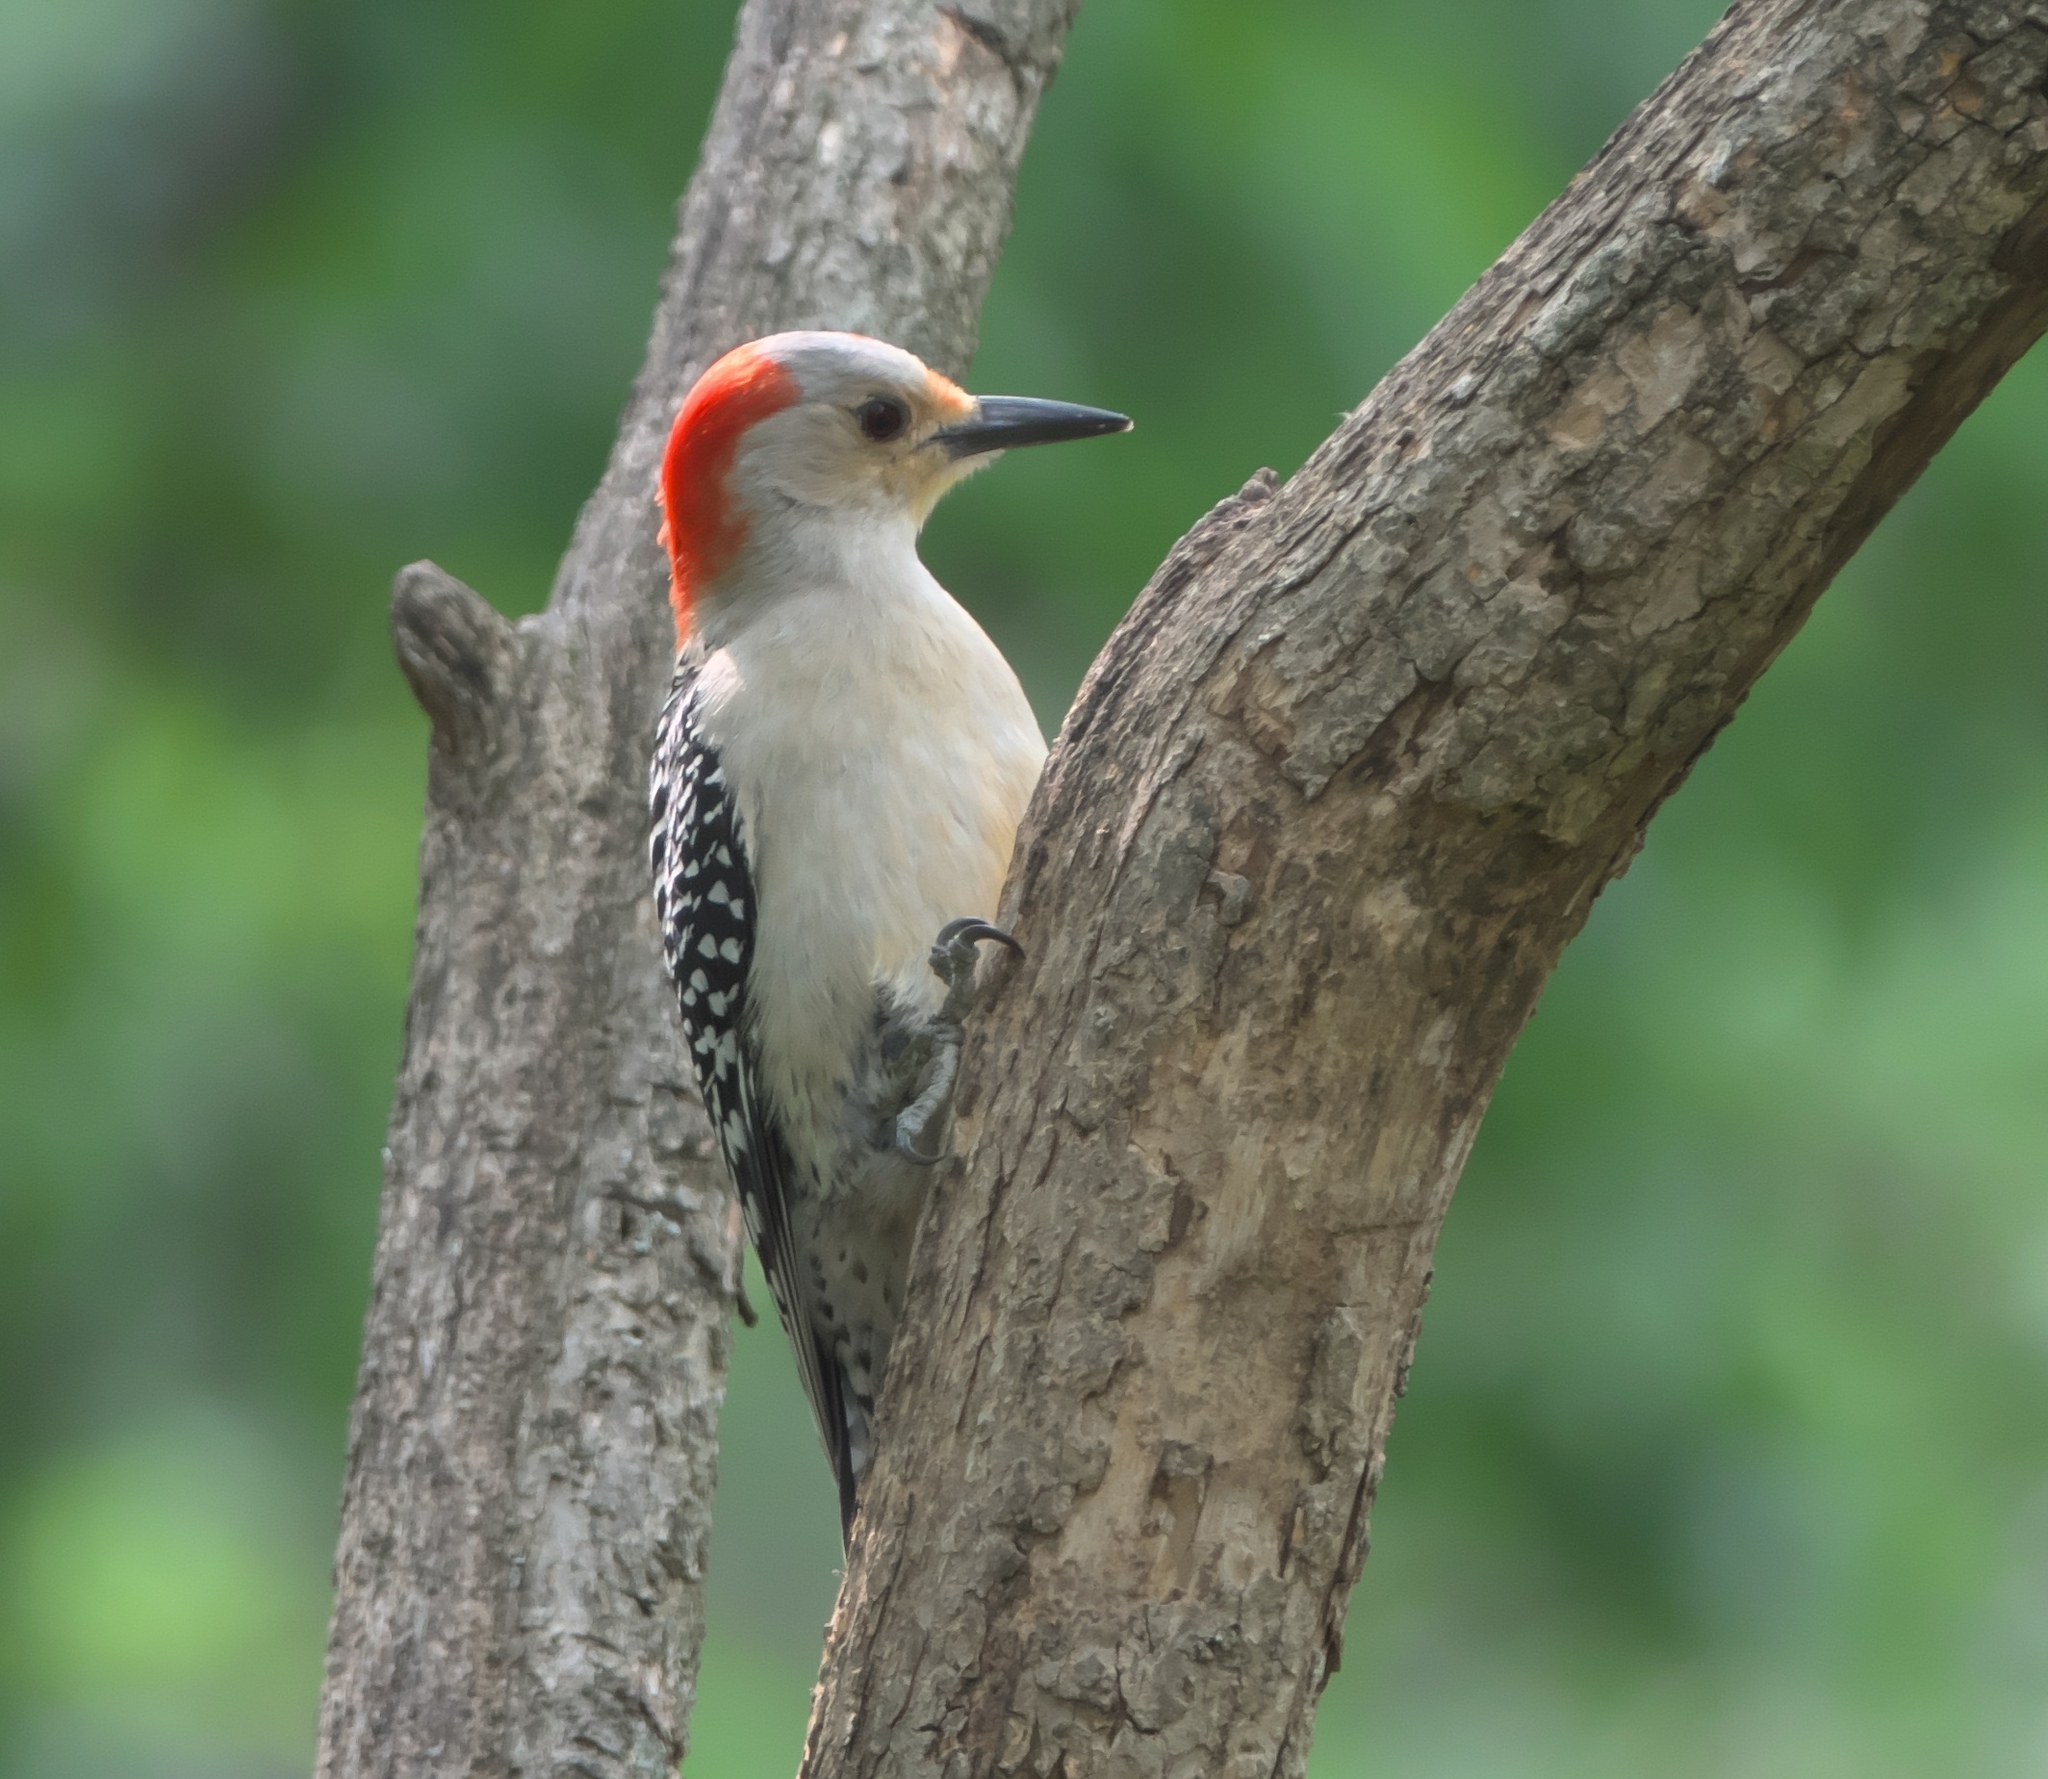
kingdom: Animalia
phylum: Chordata
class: Aves
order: Piciformes
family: Picidae
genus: Melanerpes
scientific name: Melanerpes carolinus
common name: Red-bellied woodpecker
